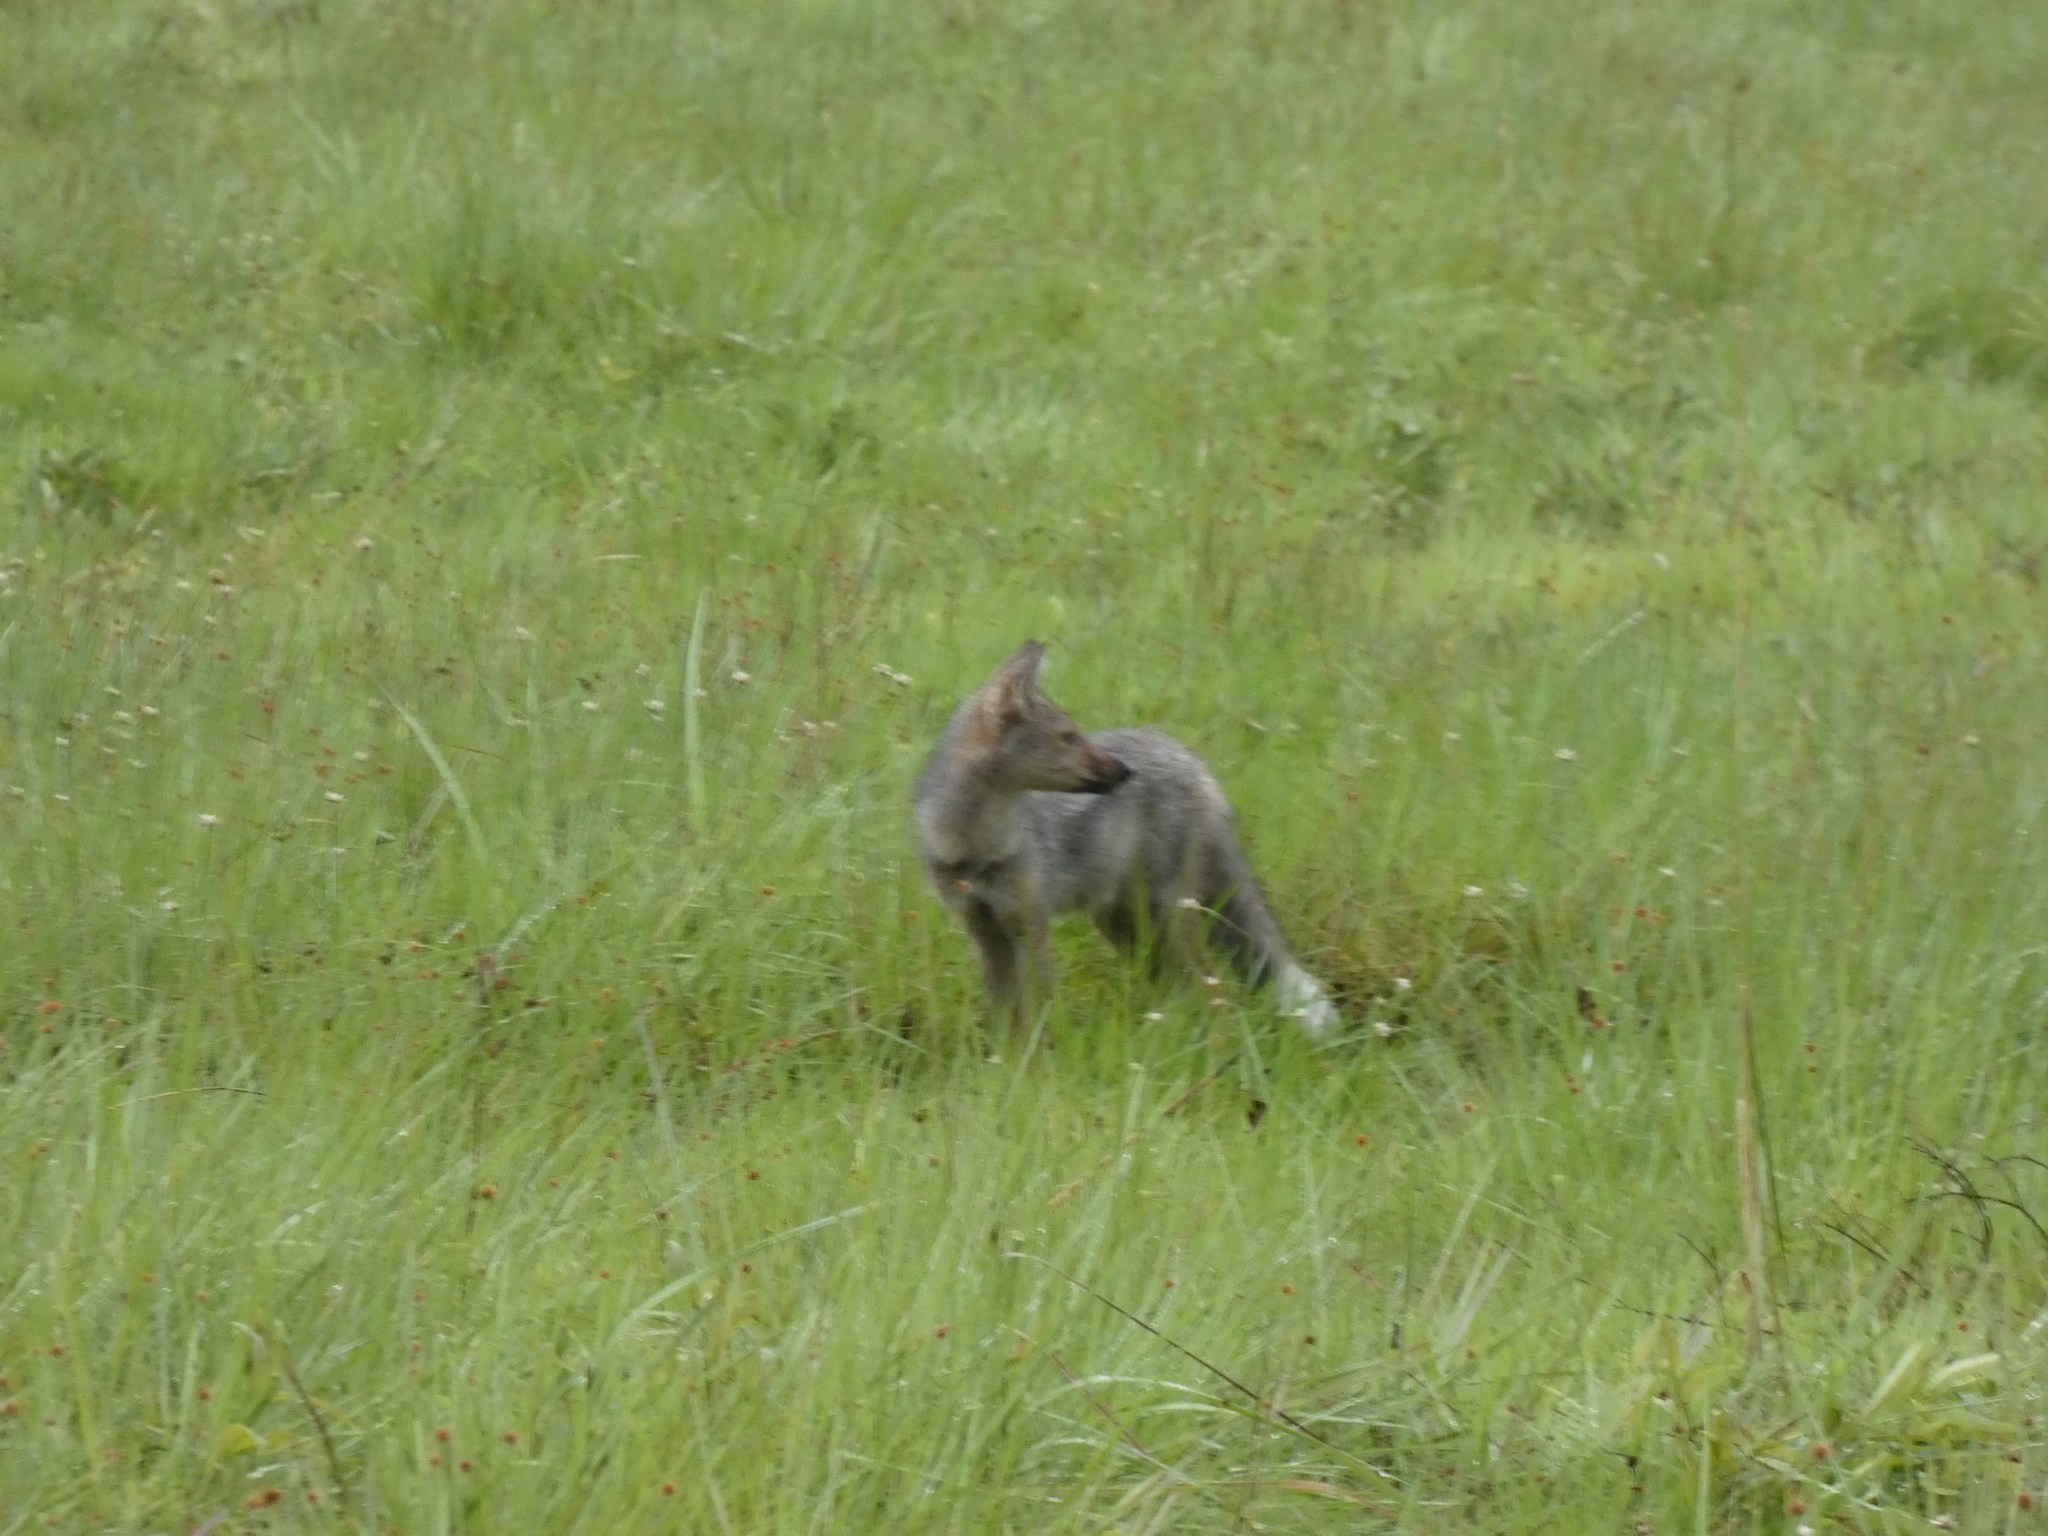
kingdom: Animalia
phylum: Chordata
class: Mammalia
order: Carnivora
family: Canidae
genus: Lupulella
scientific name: Lupulella
